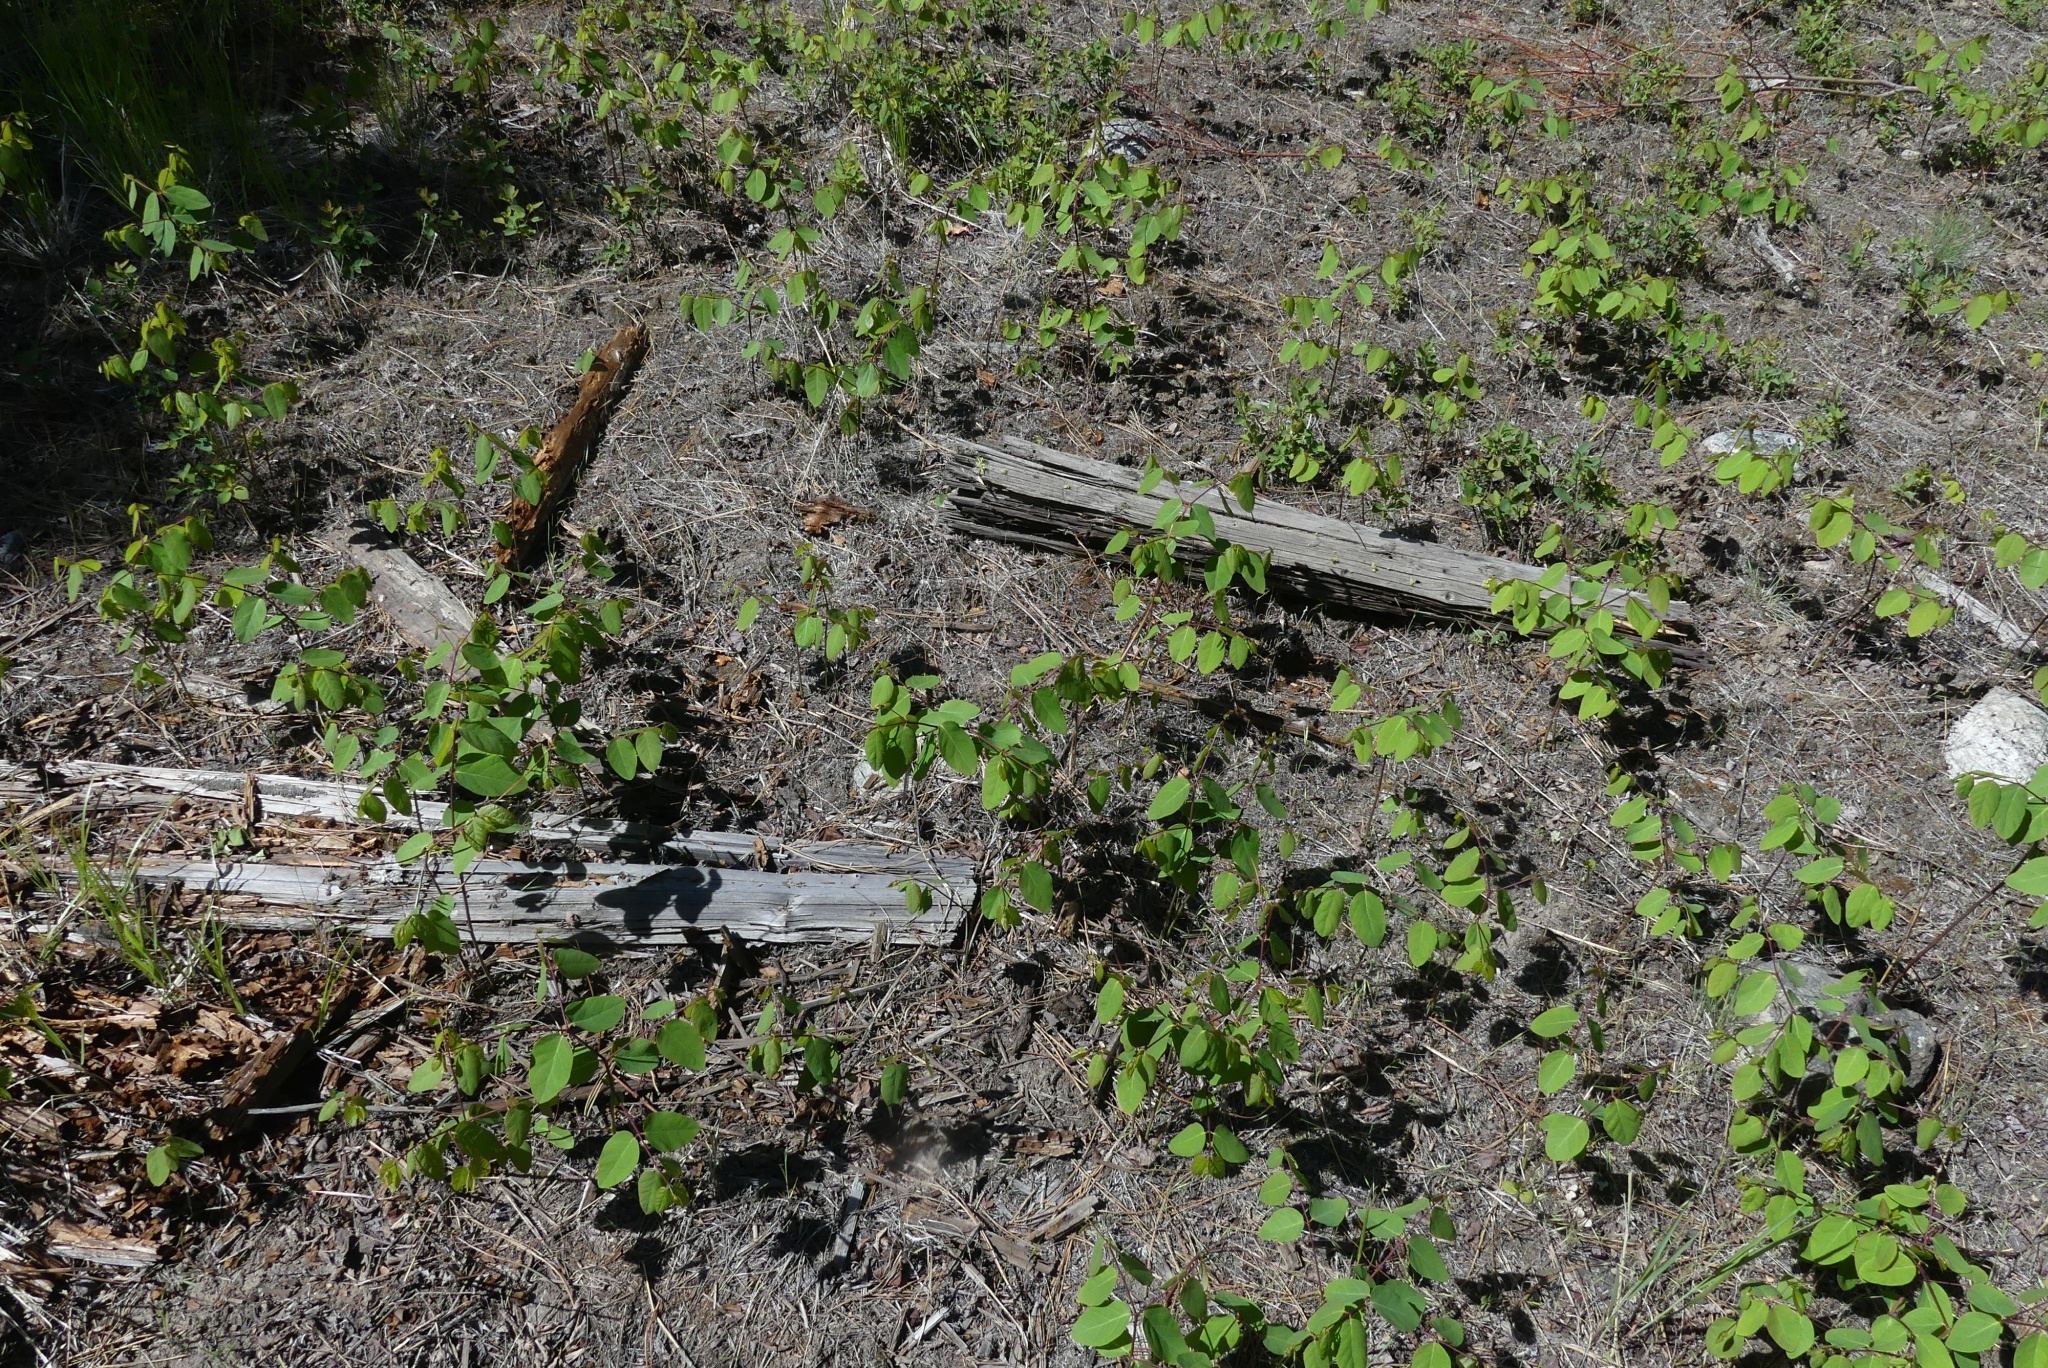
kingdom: Plantae
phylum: Tracheophyta
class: Magnoliopsida
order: Gentianales
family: Apocynaceae
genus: Apocynum
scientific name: Apocynum androsaemifolium
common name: Spreading dogbane
